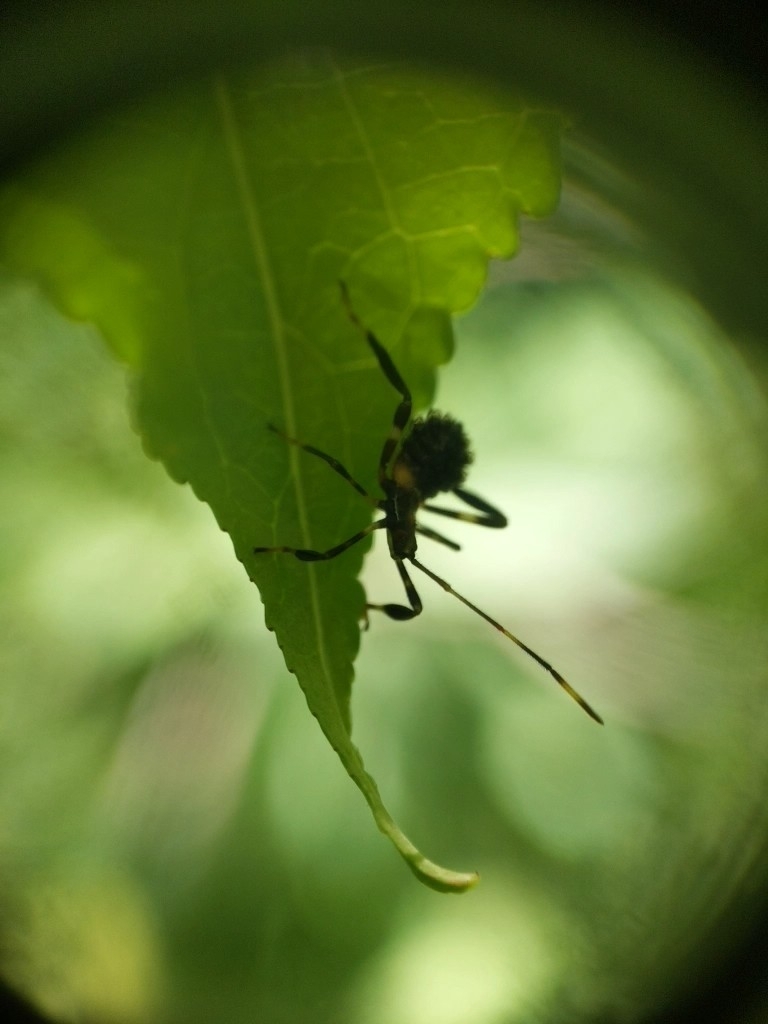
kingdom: Animalia
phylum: Arthropoda
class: Insecta
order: Hemiptera
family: Coreidae
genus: Acanthocephala
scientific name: Acanthocephala terminalis
